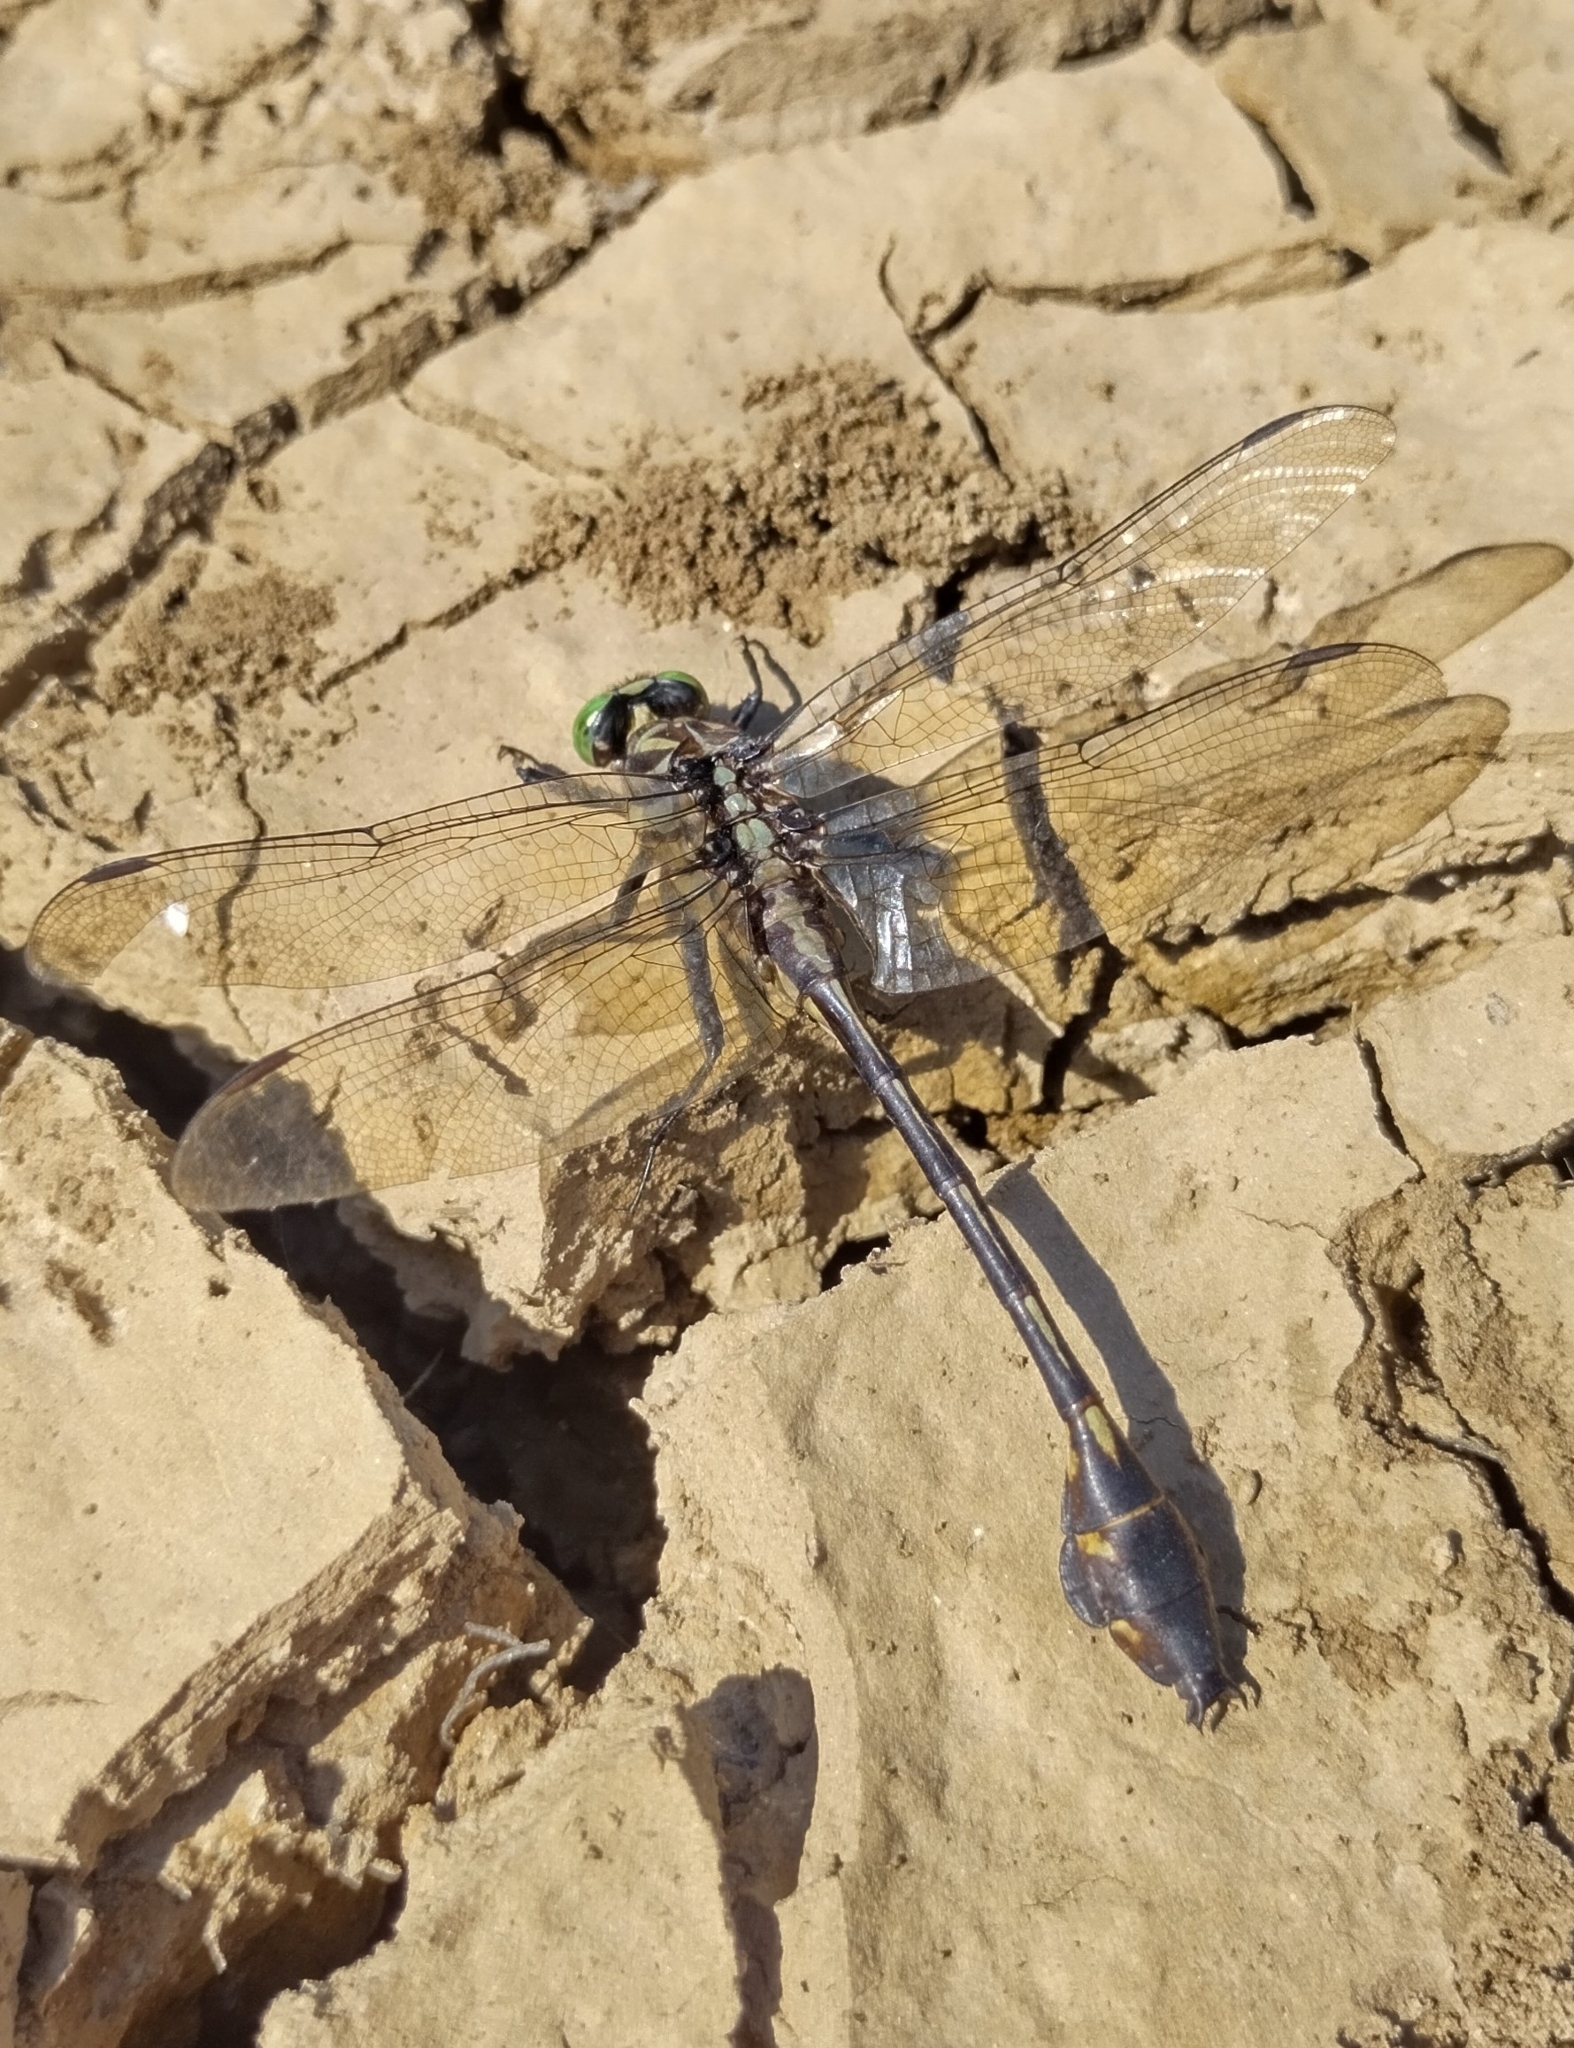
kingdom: Animalia
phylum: Arthropoda
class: Insecta
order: Odonata
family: Gomphidae
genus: Gomphurus
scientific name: Gomphurus dilatatus
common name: Blackwater clubtail
